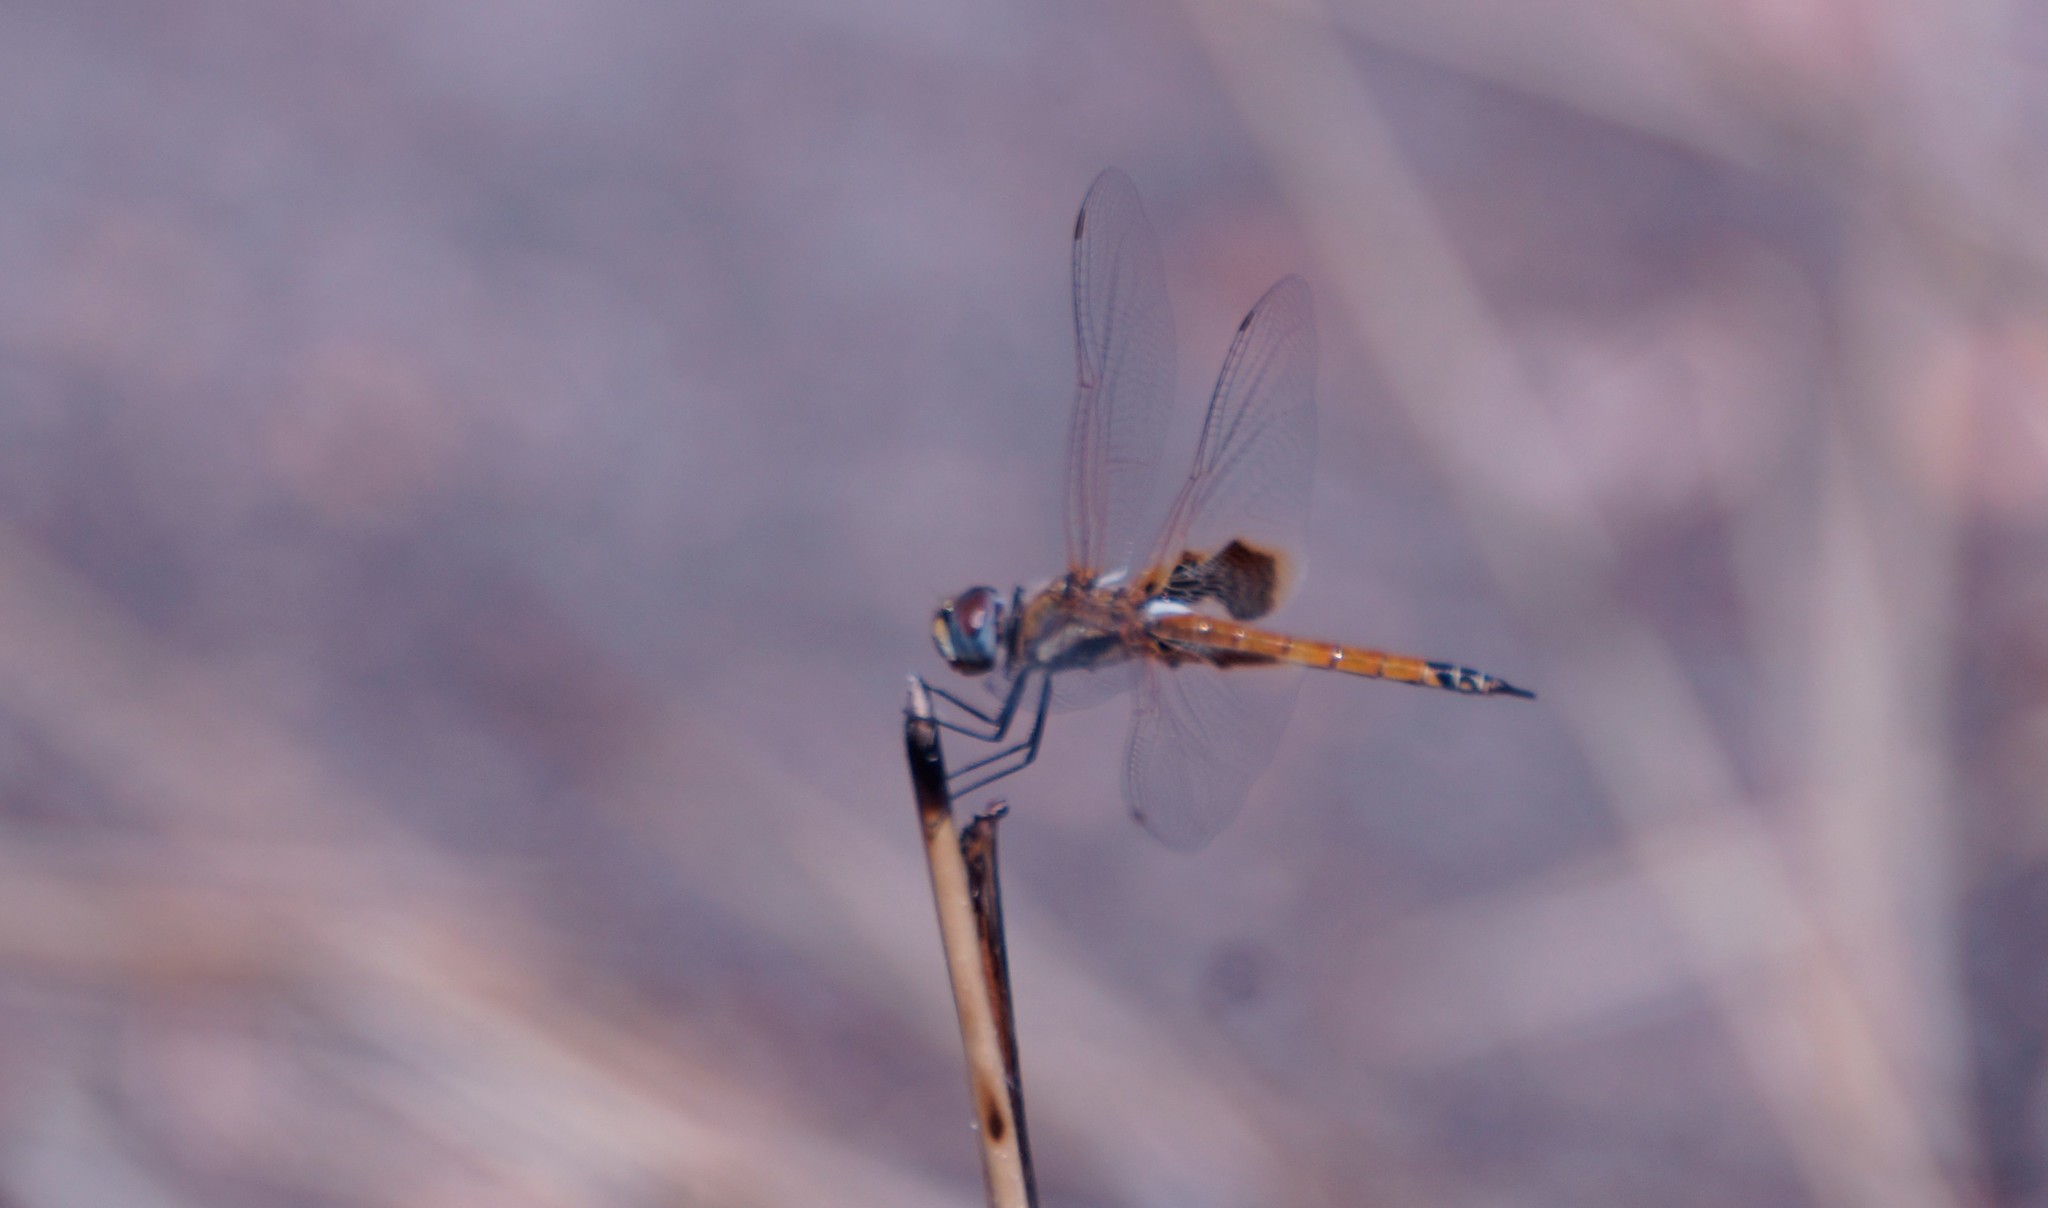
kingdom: Animalia
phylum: Arthropoda
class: Insecta
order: Odonata
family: Libellulidae
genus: Tramea
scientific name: Tramea loewii
